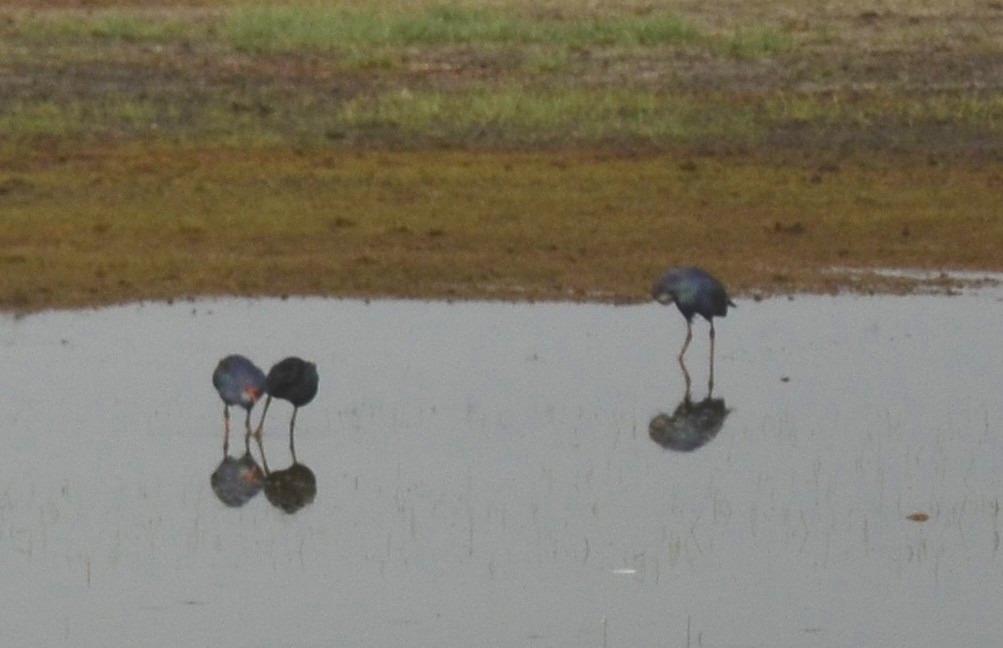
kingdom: Animalia
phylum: Chordata
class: Aves
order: Gruiformes
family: Rallidae
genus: Porphyrio
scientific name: Porphyrio porphyrio
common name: Purple swamphen
